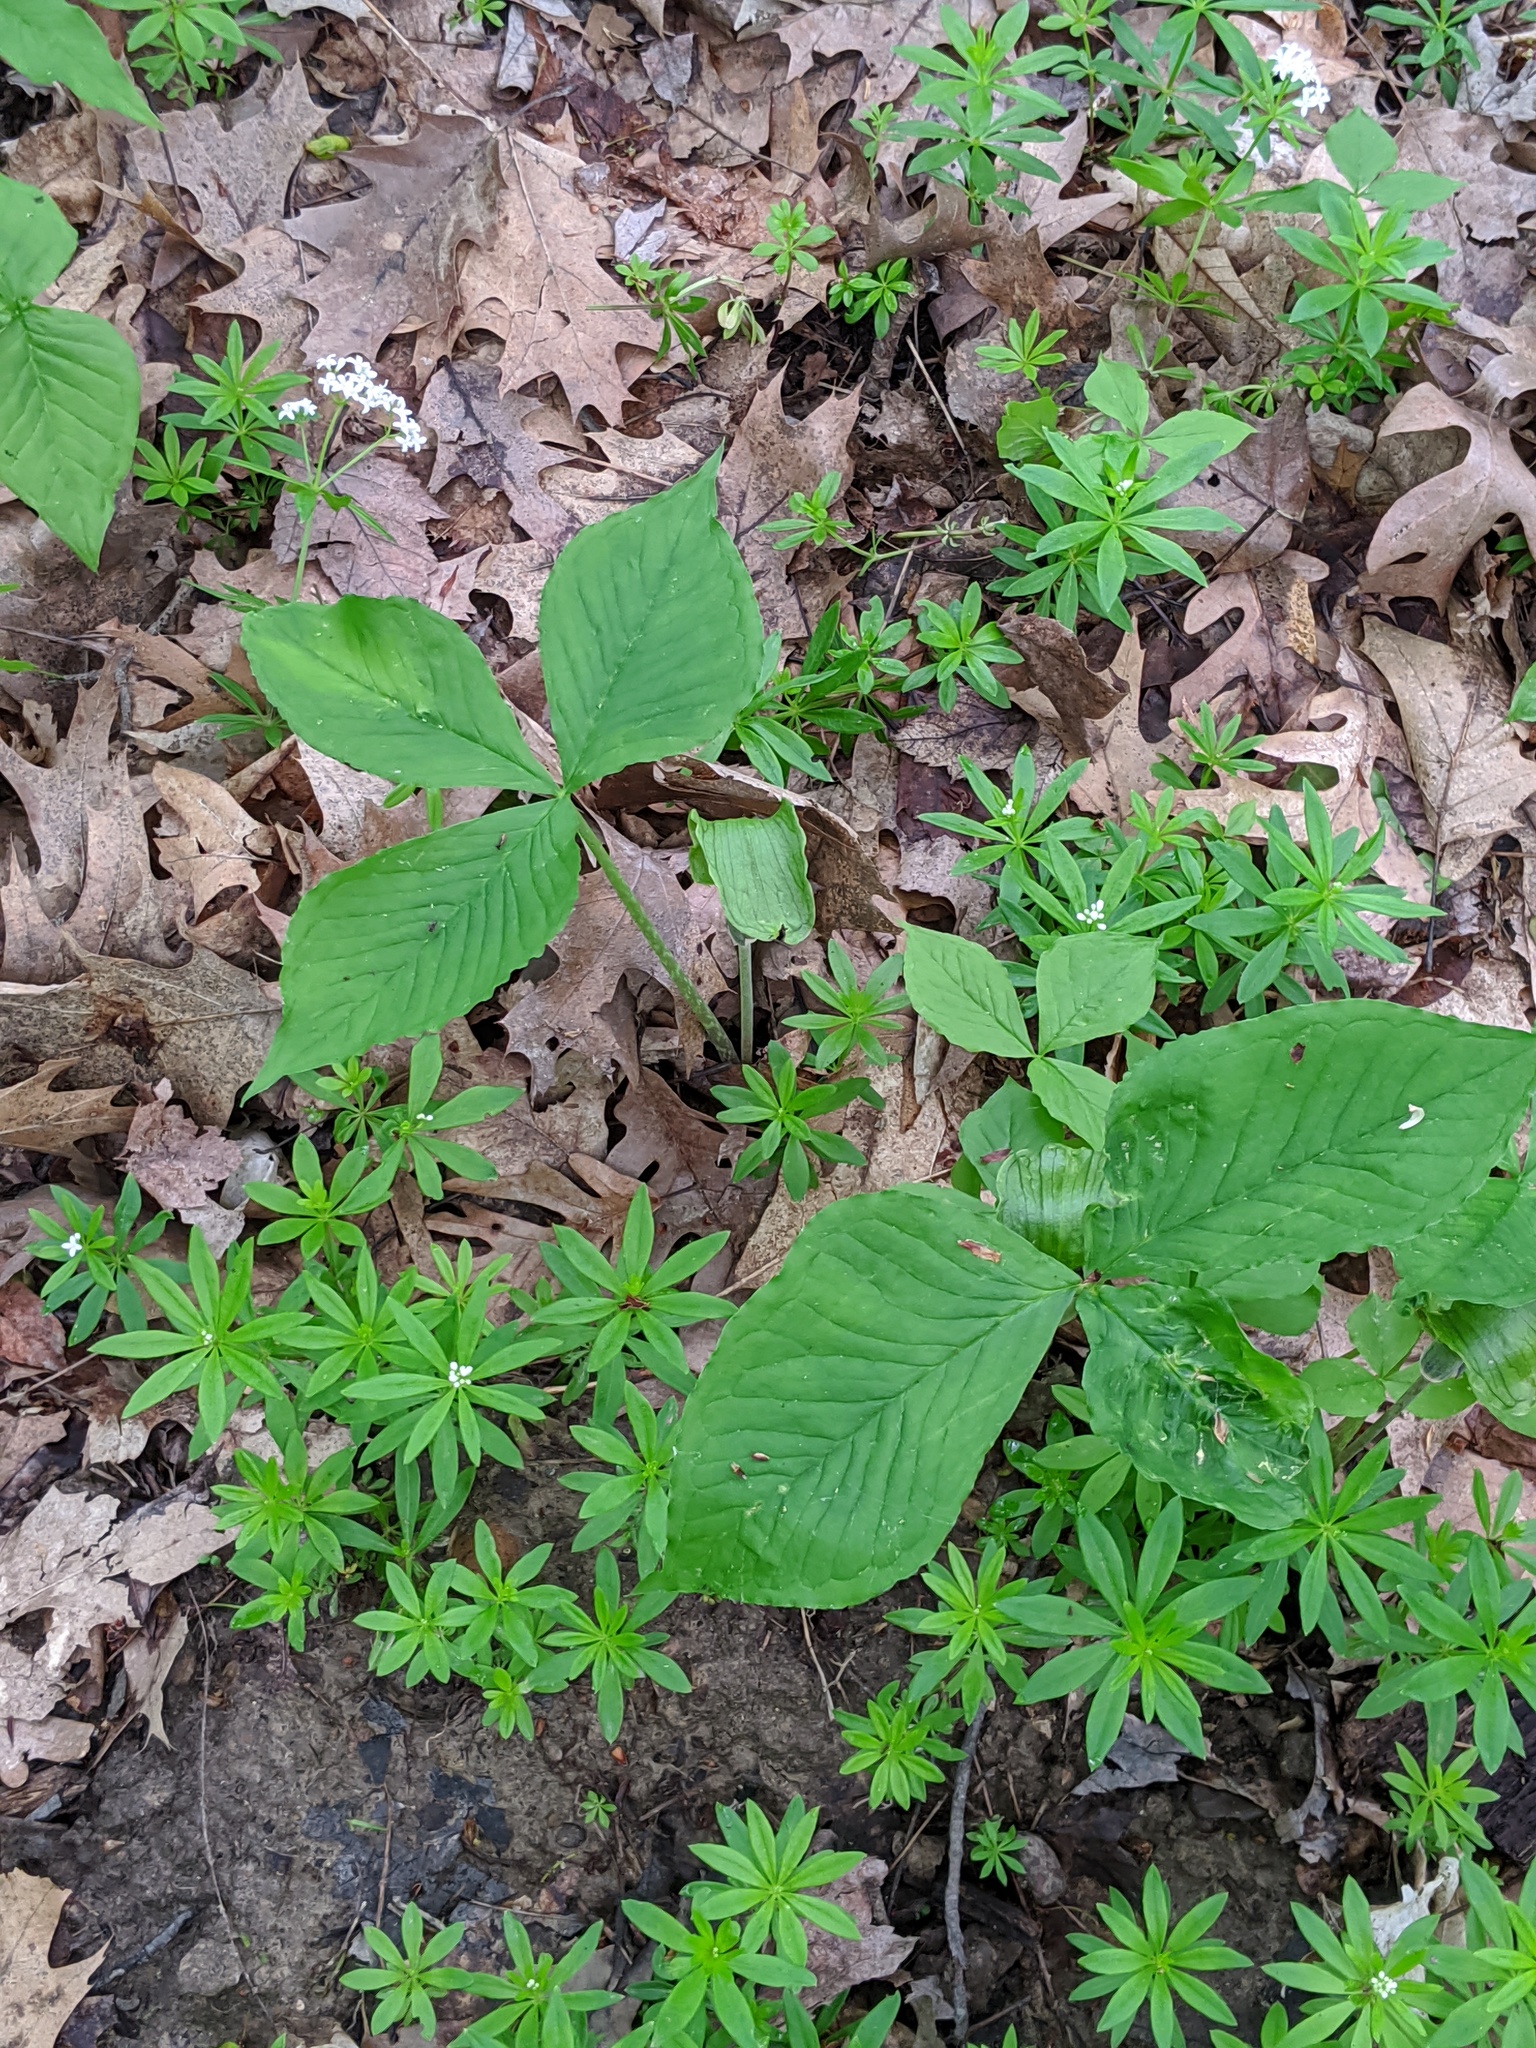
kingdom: Plantae
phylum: Tracheophyta
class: Liliopsida
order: Alismatales
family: Araceae
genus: Arisaema
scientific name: Arisaema triphyllum
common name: Jack-in-the-pulpit
